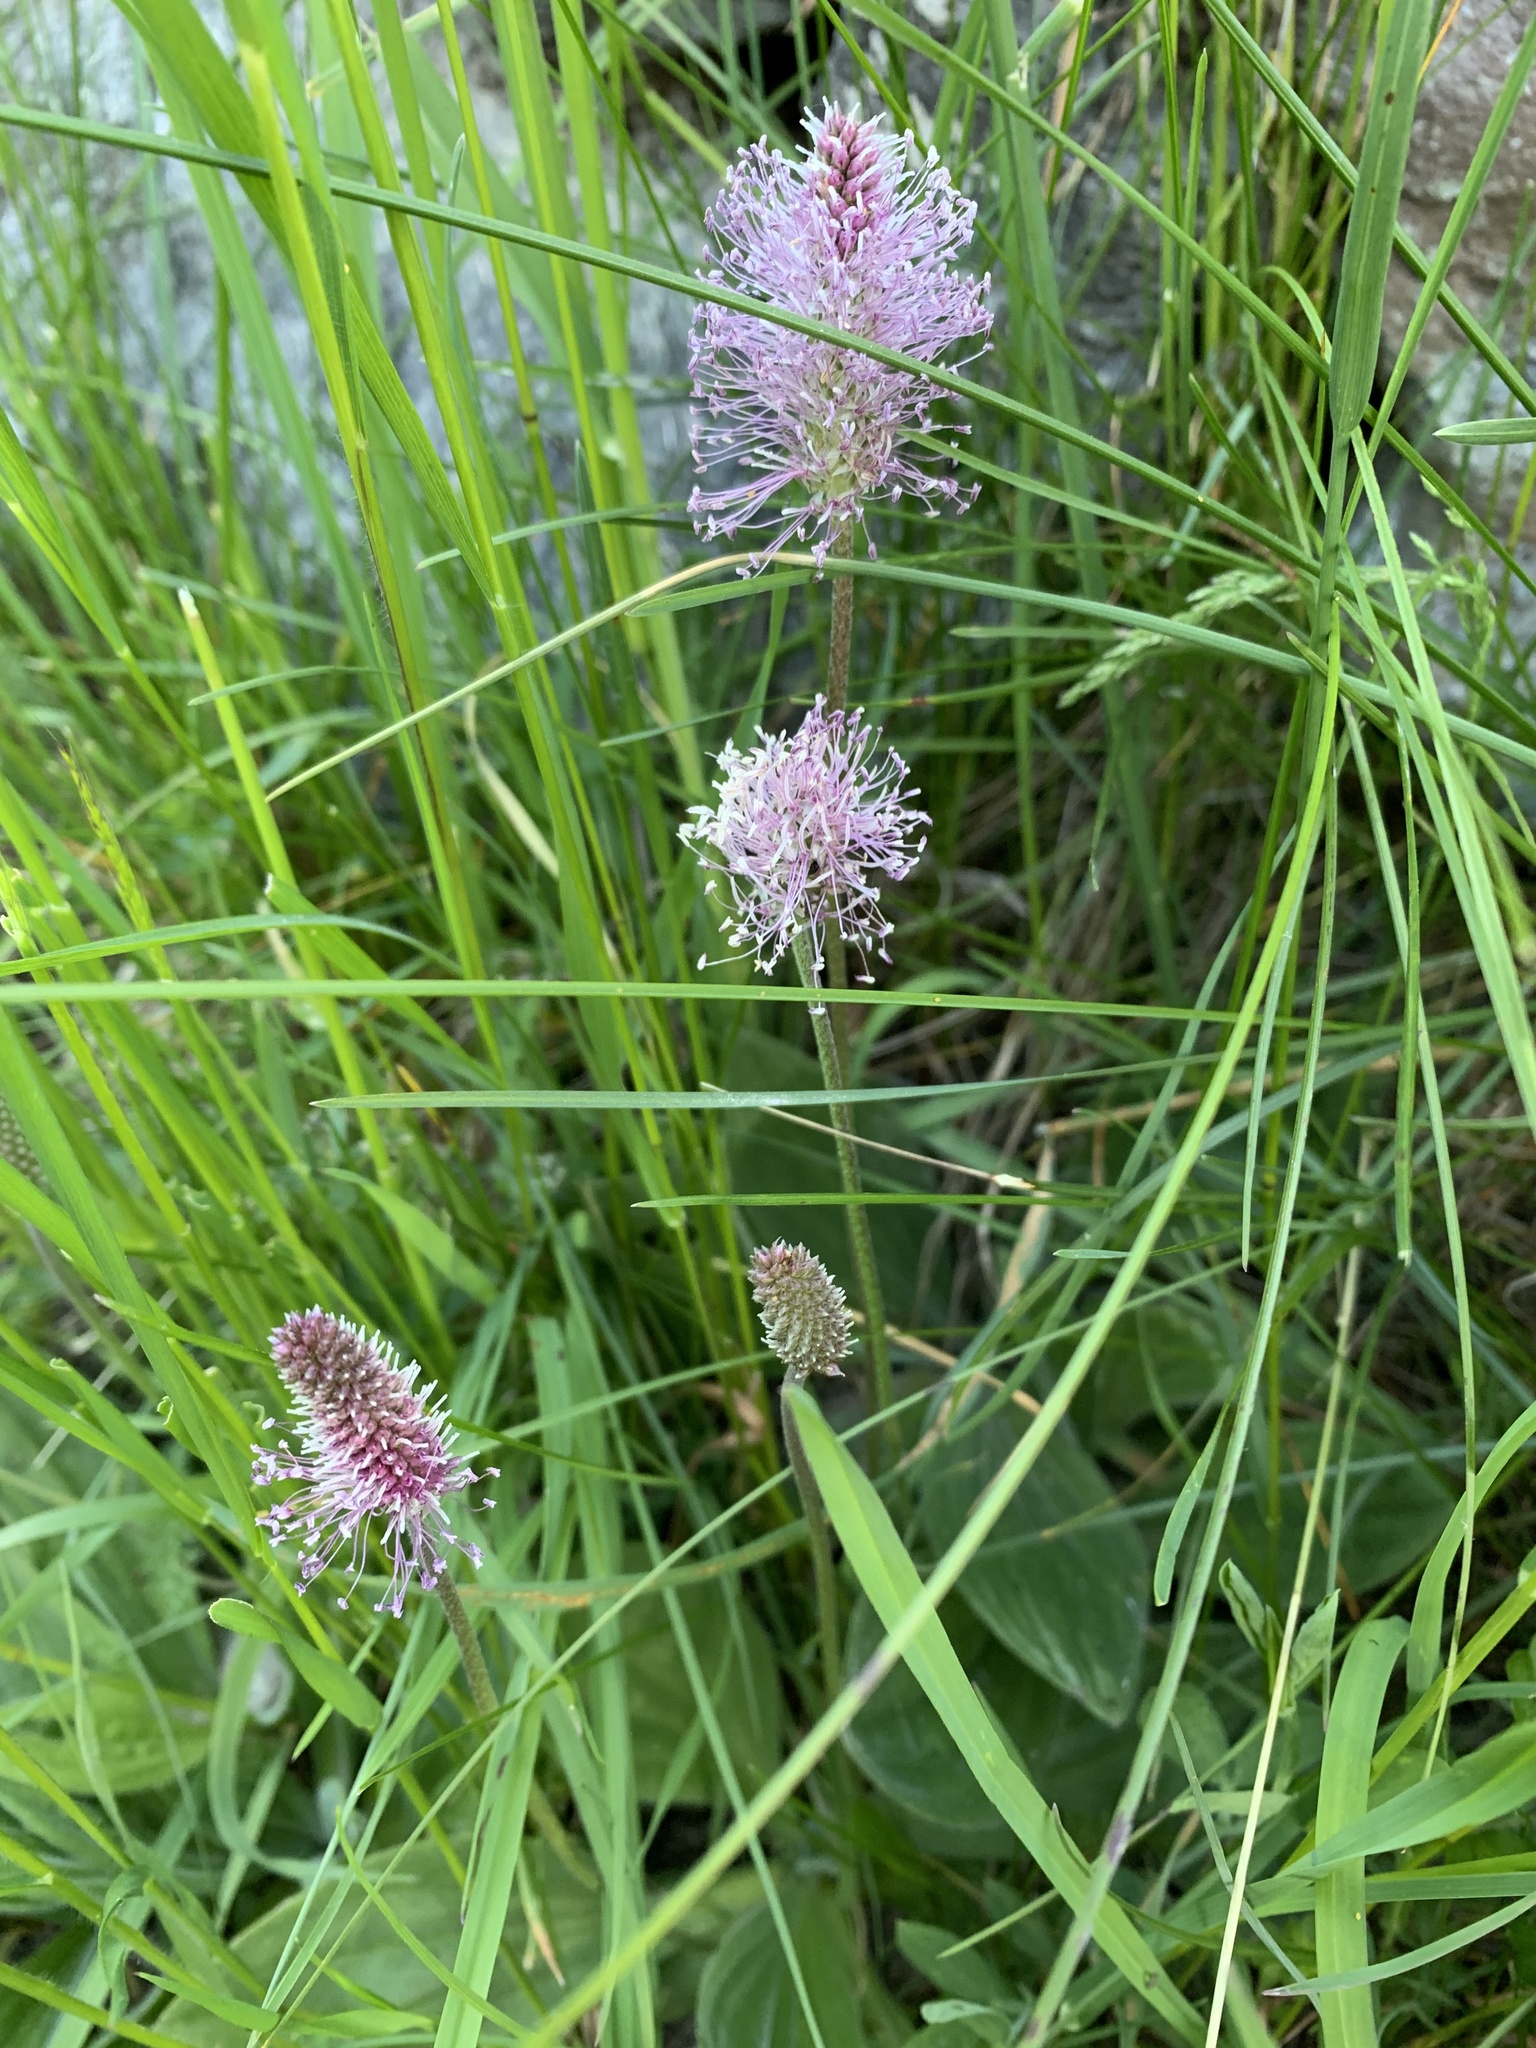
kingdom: Plantae
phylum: Tracheophyta
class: Magnoliopsida
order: Lamiales
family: Plantaginaceae
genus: Plantago
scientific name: Plantago media
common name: Hoary plantain
